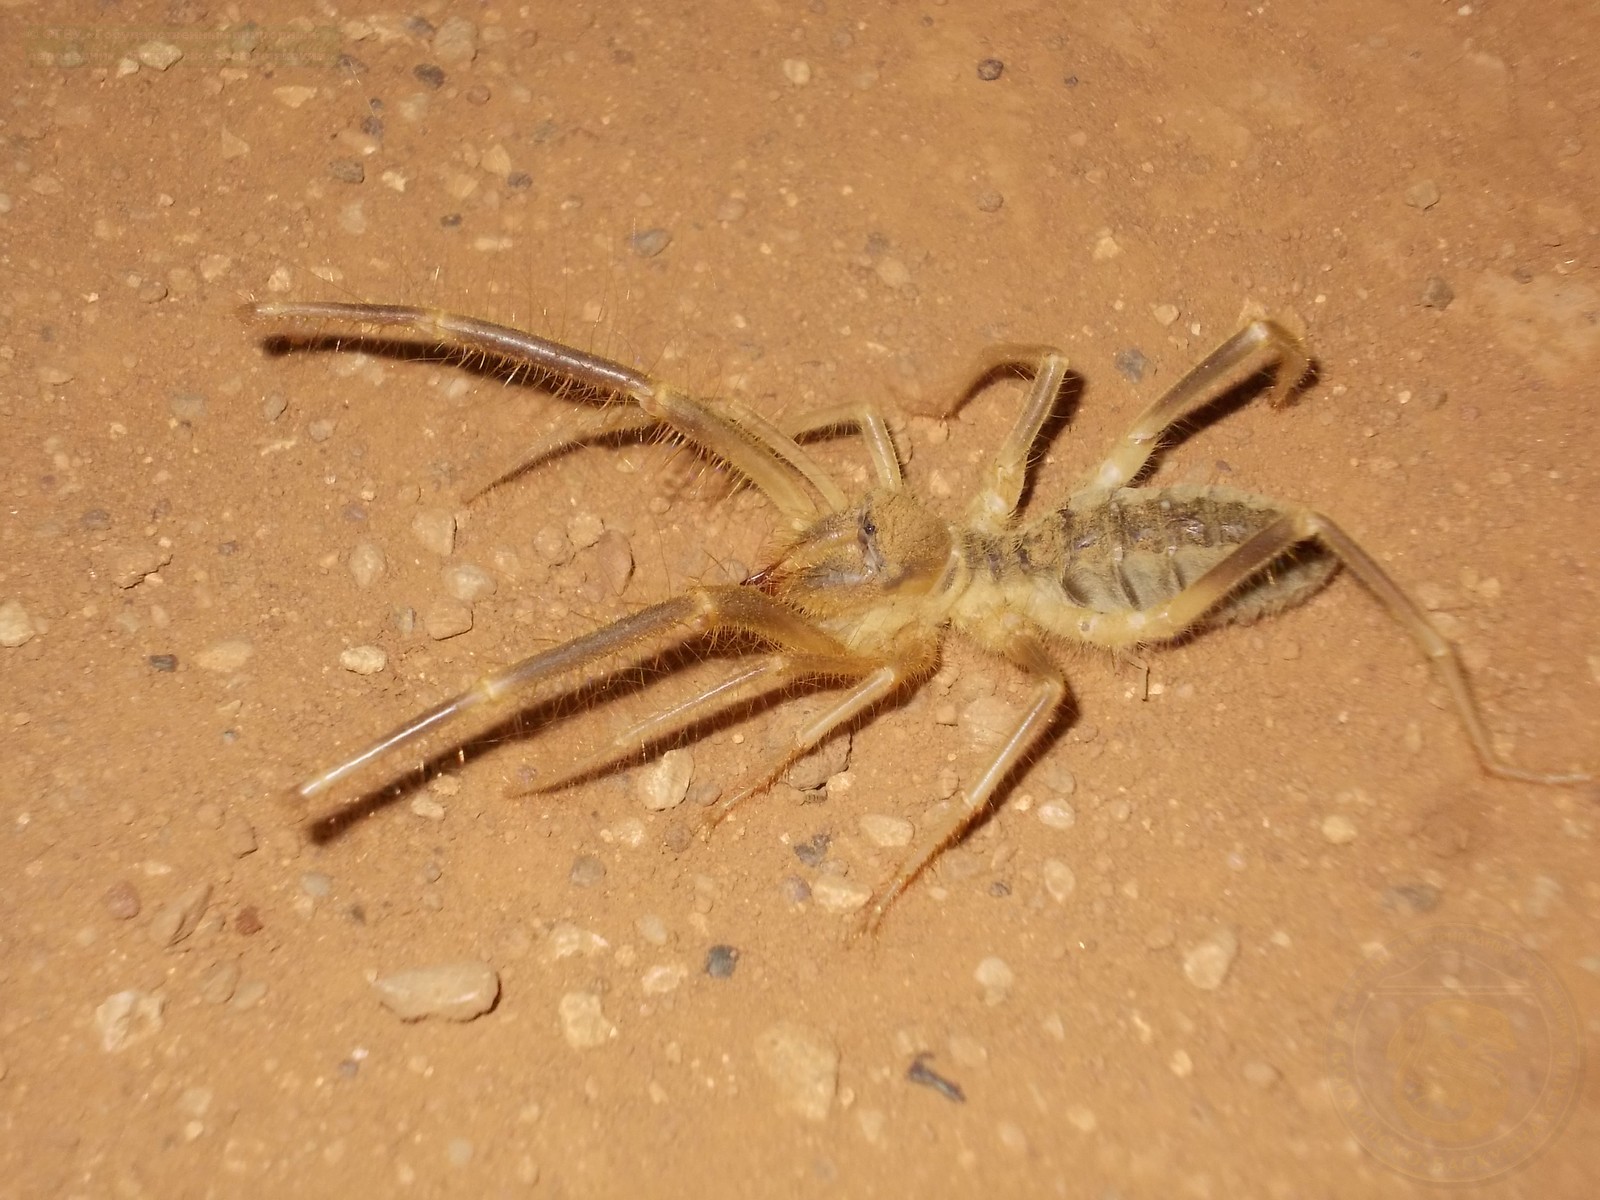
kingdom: Animalia
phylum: Arthropoda
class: Arachnida
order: Solifugae
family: Galeodidae
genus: Galeodes
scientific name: Galeodes araneoides
